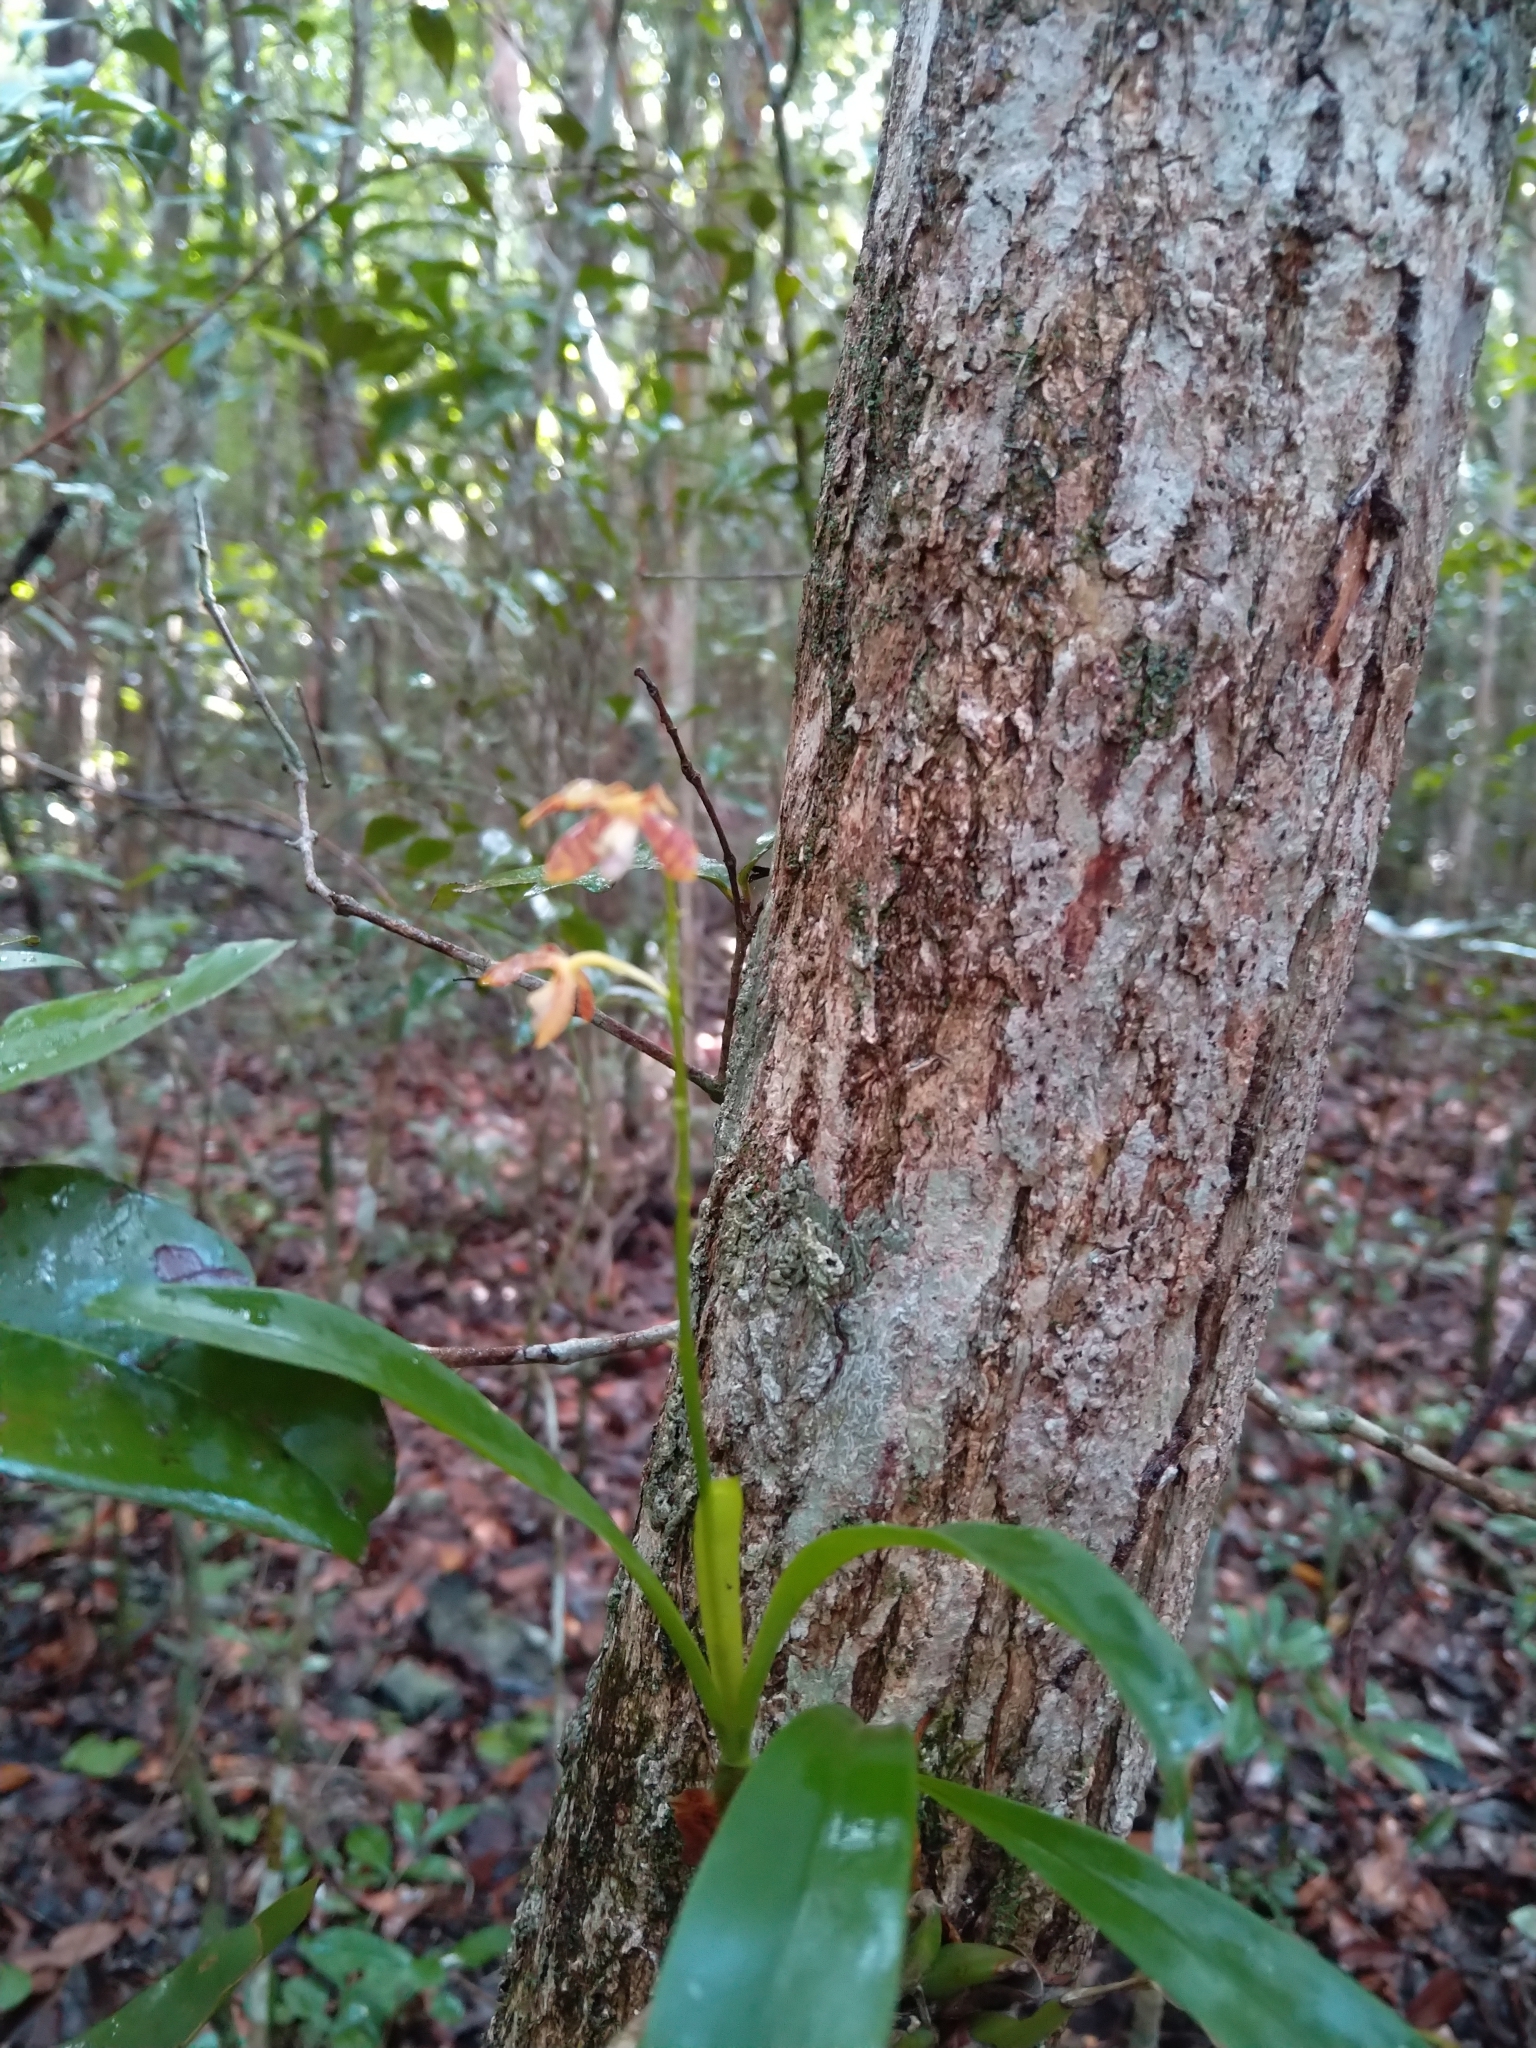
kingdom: Plantae
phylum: Tracheophyta
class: Liliopsida
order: Asparagales
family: Orchidaceae
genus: Prosthechea
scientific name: Prosthechea boothiana
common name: Dollar orchid
